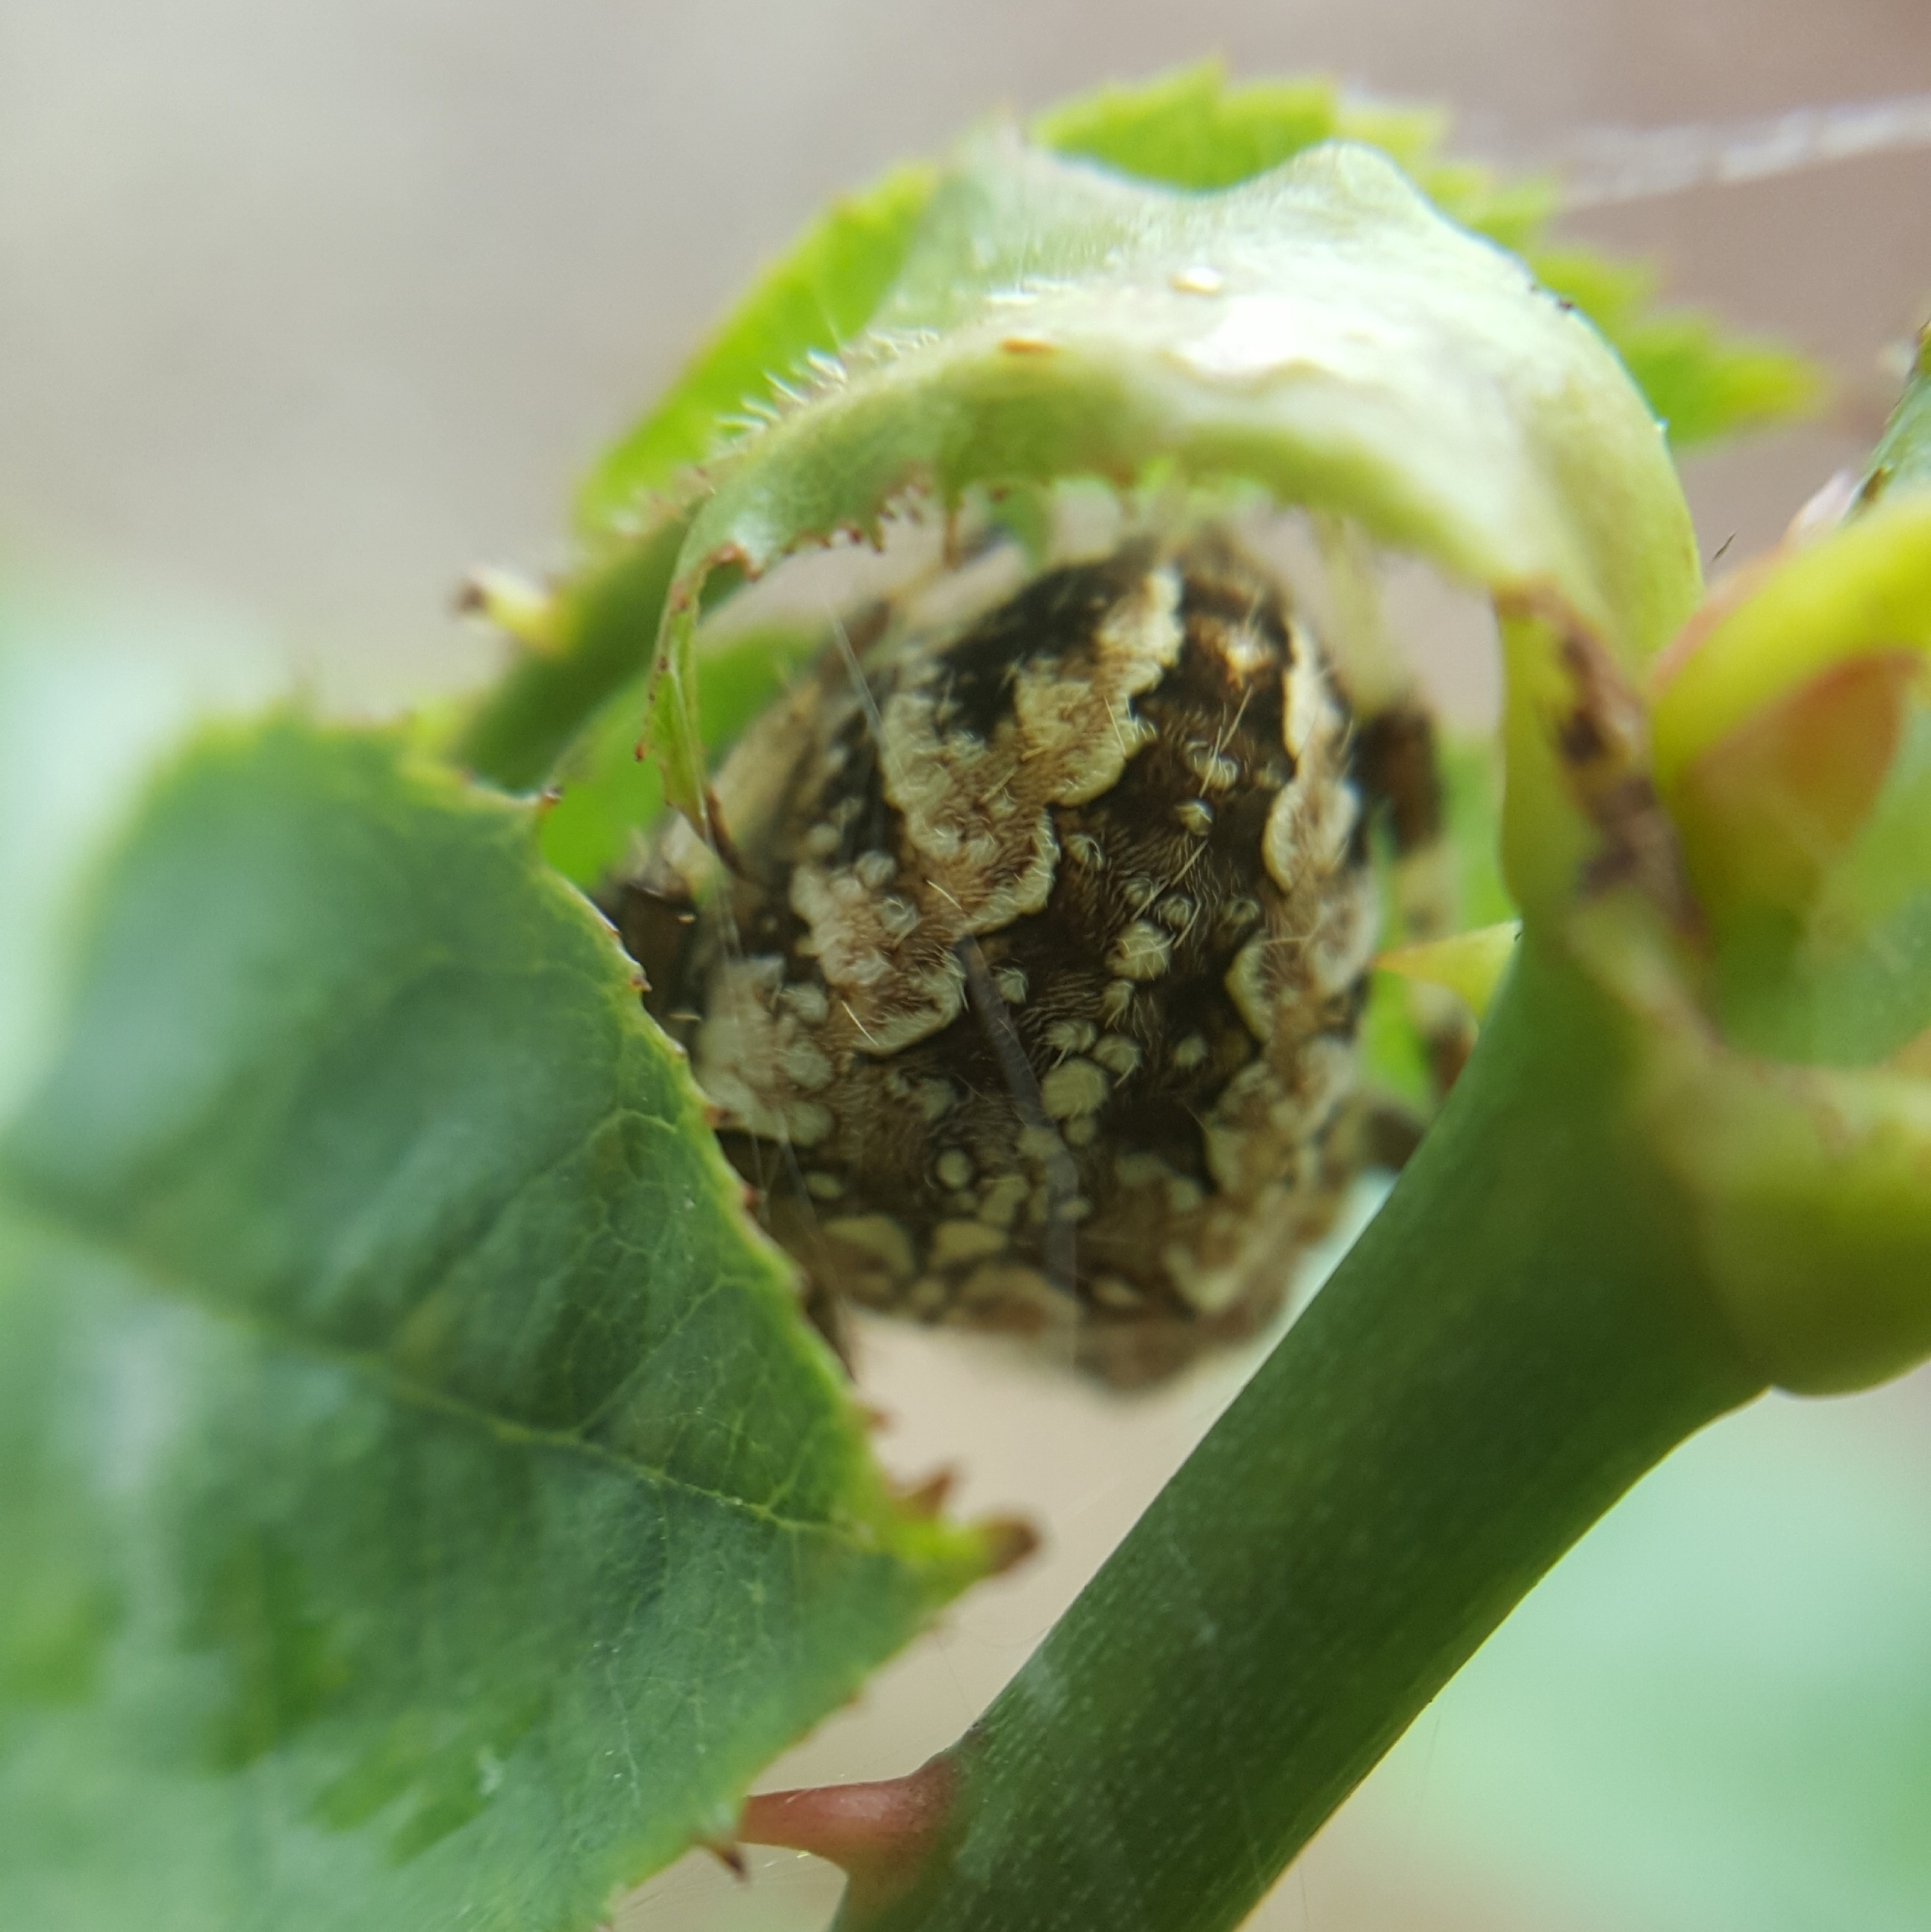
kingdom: Animalia
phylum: Arthropoda
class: Arachnida
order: Araneae
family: Araneidae
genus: Araneus
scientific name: Araneus diadematus
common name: Cross orbweaver
